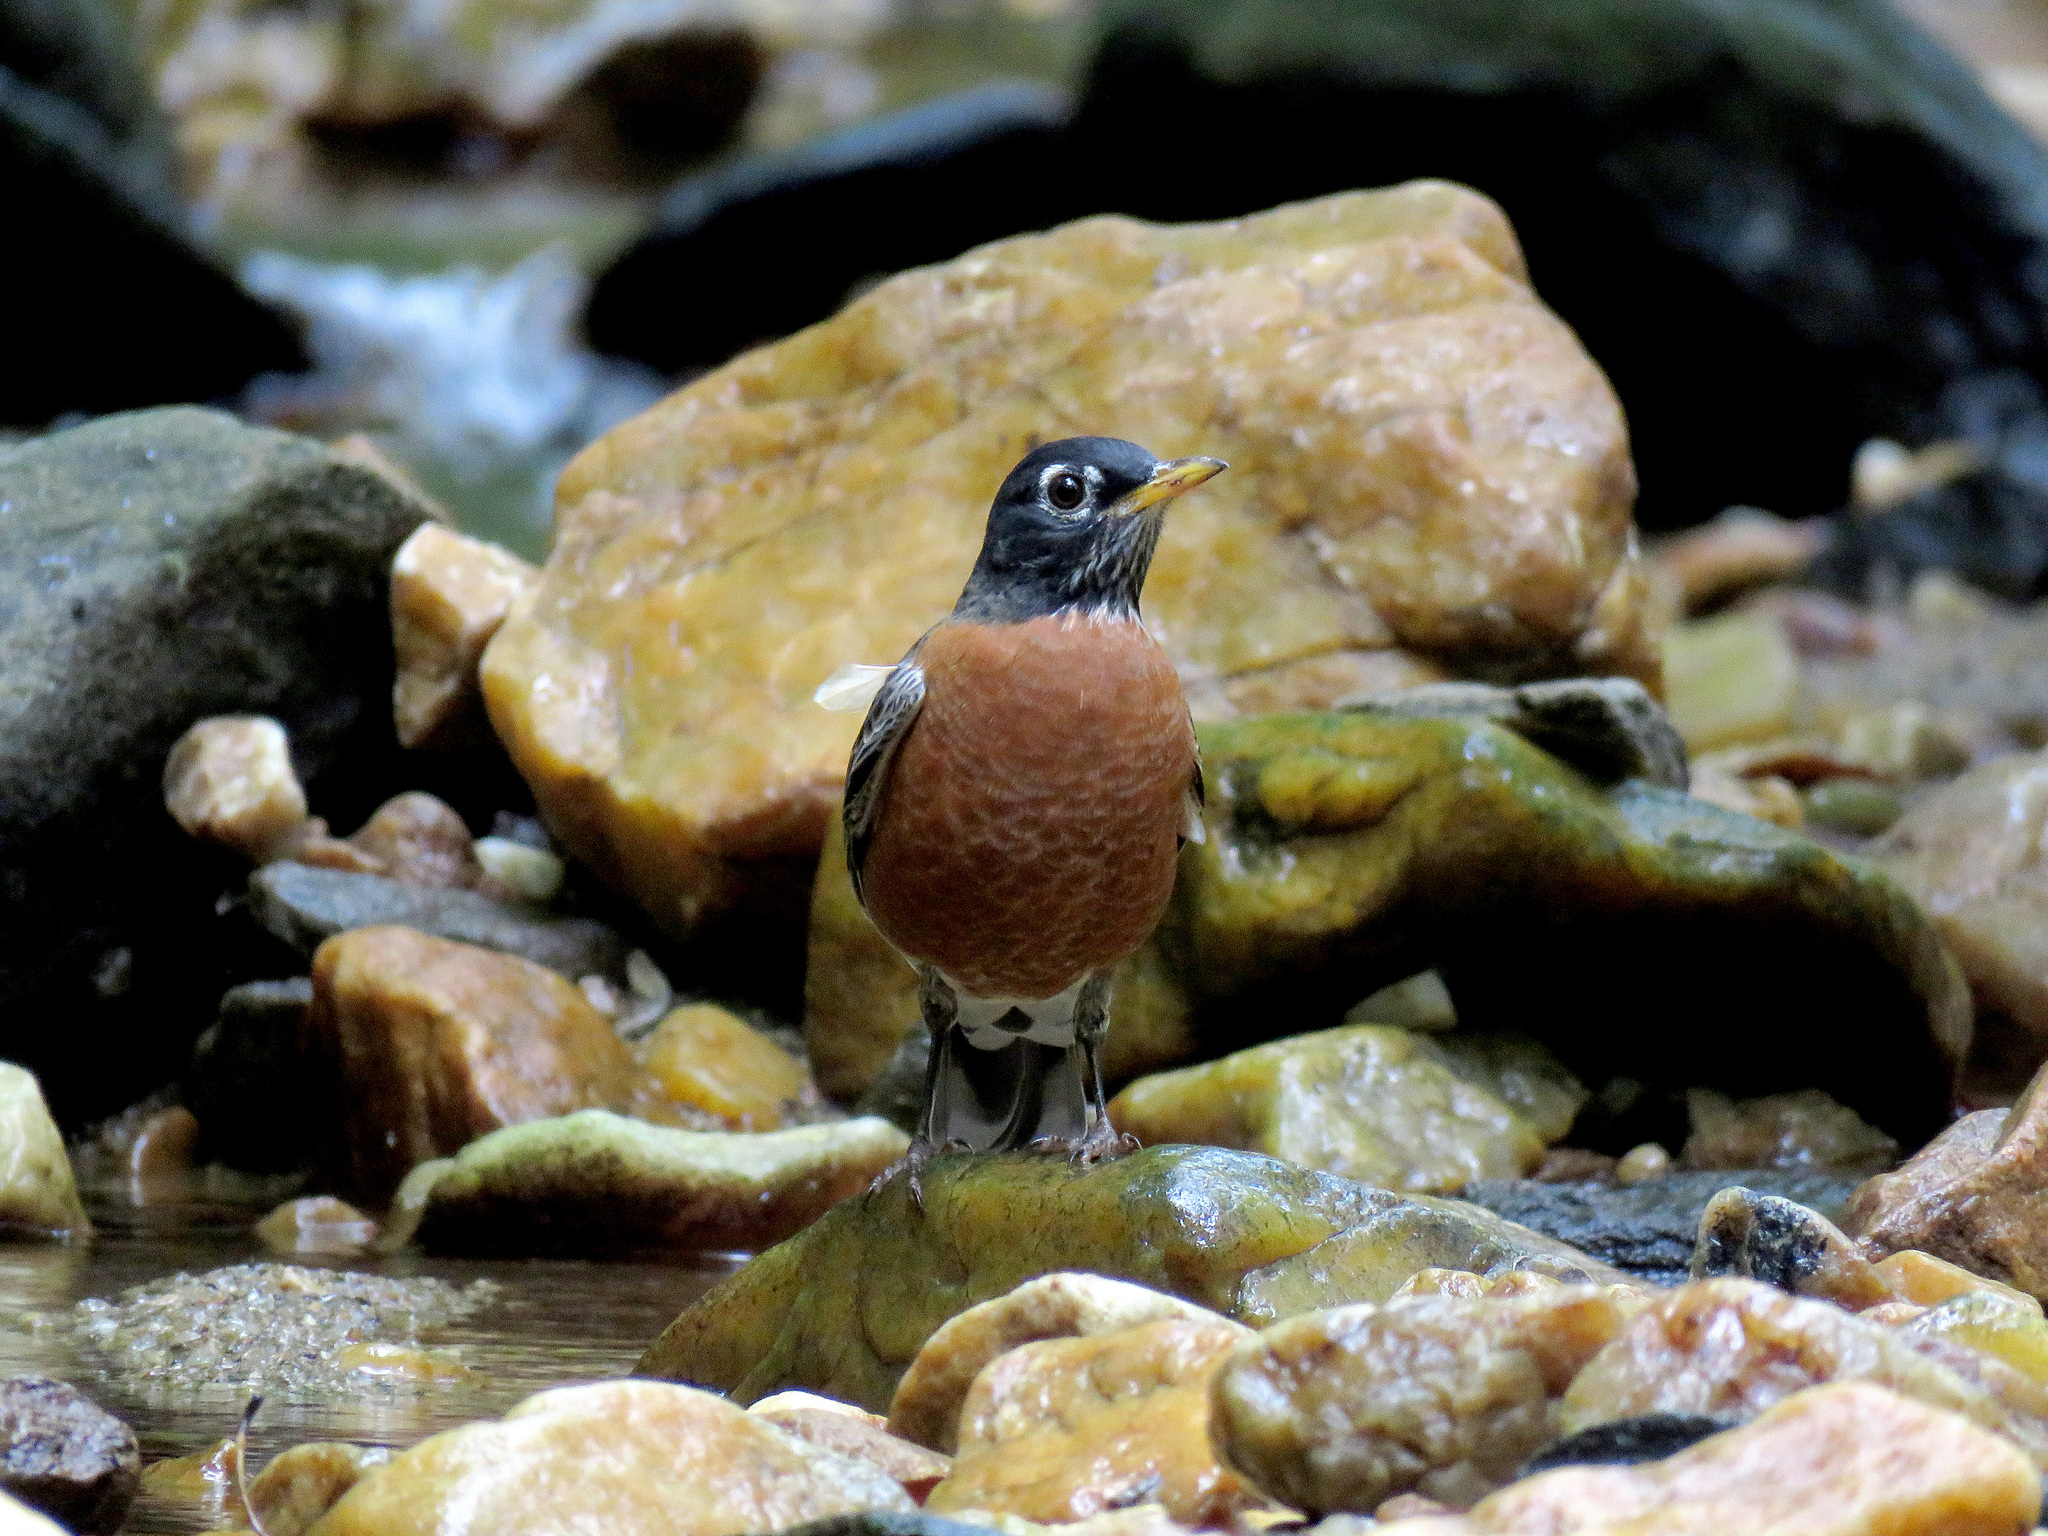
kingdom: Animalia
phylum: Chordata
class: Aves
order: Passeriformes
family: Turdidae
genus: Turdus
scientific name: Turdus migratorius
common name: American robin
